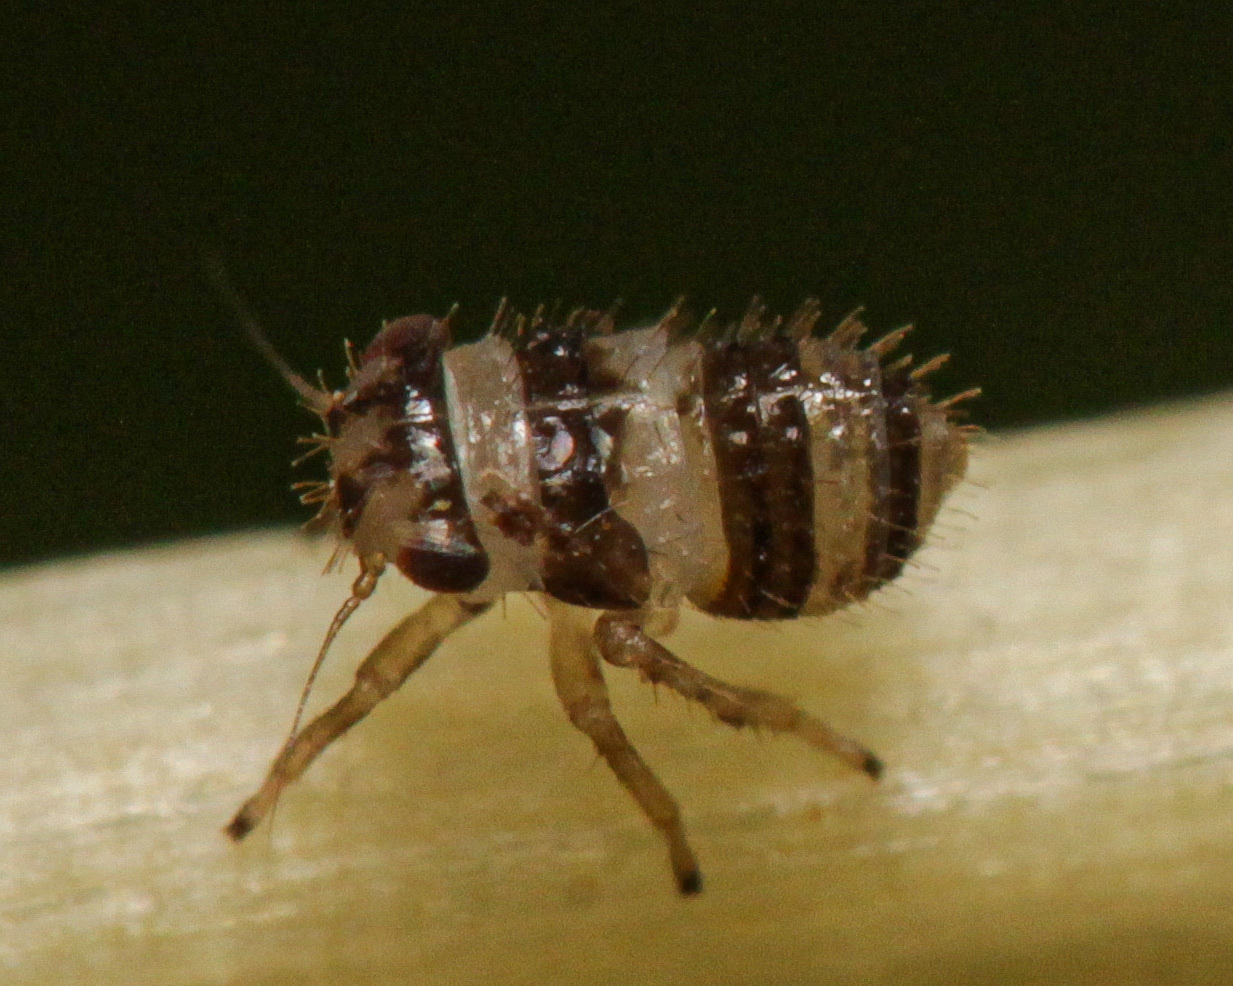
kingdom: Animalia
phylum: Arthropoda
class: Insecta
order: Hemiptera
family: Cicadellidae
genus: Agallia
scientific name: Agallia brachyptera
